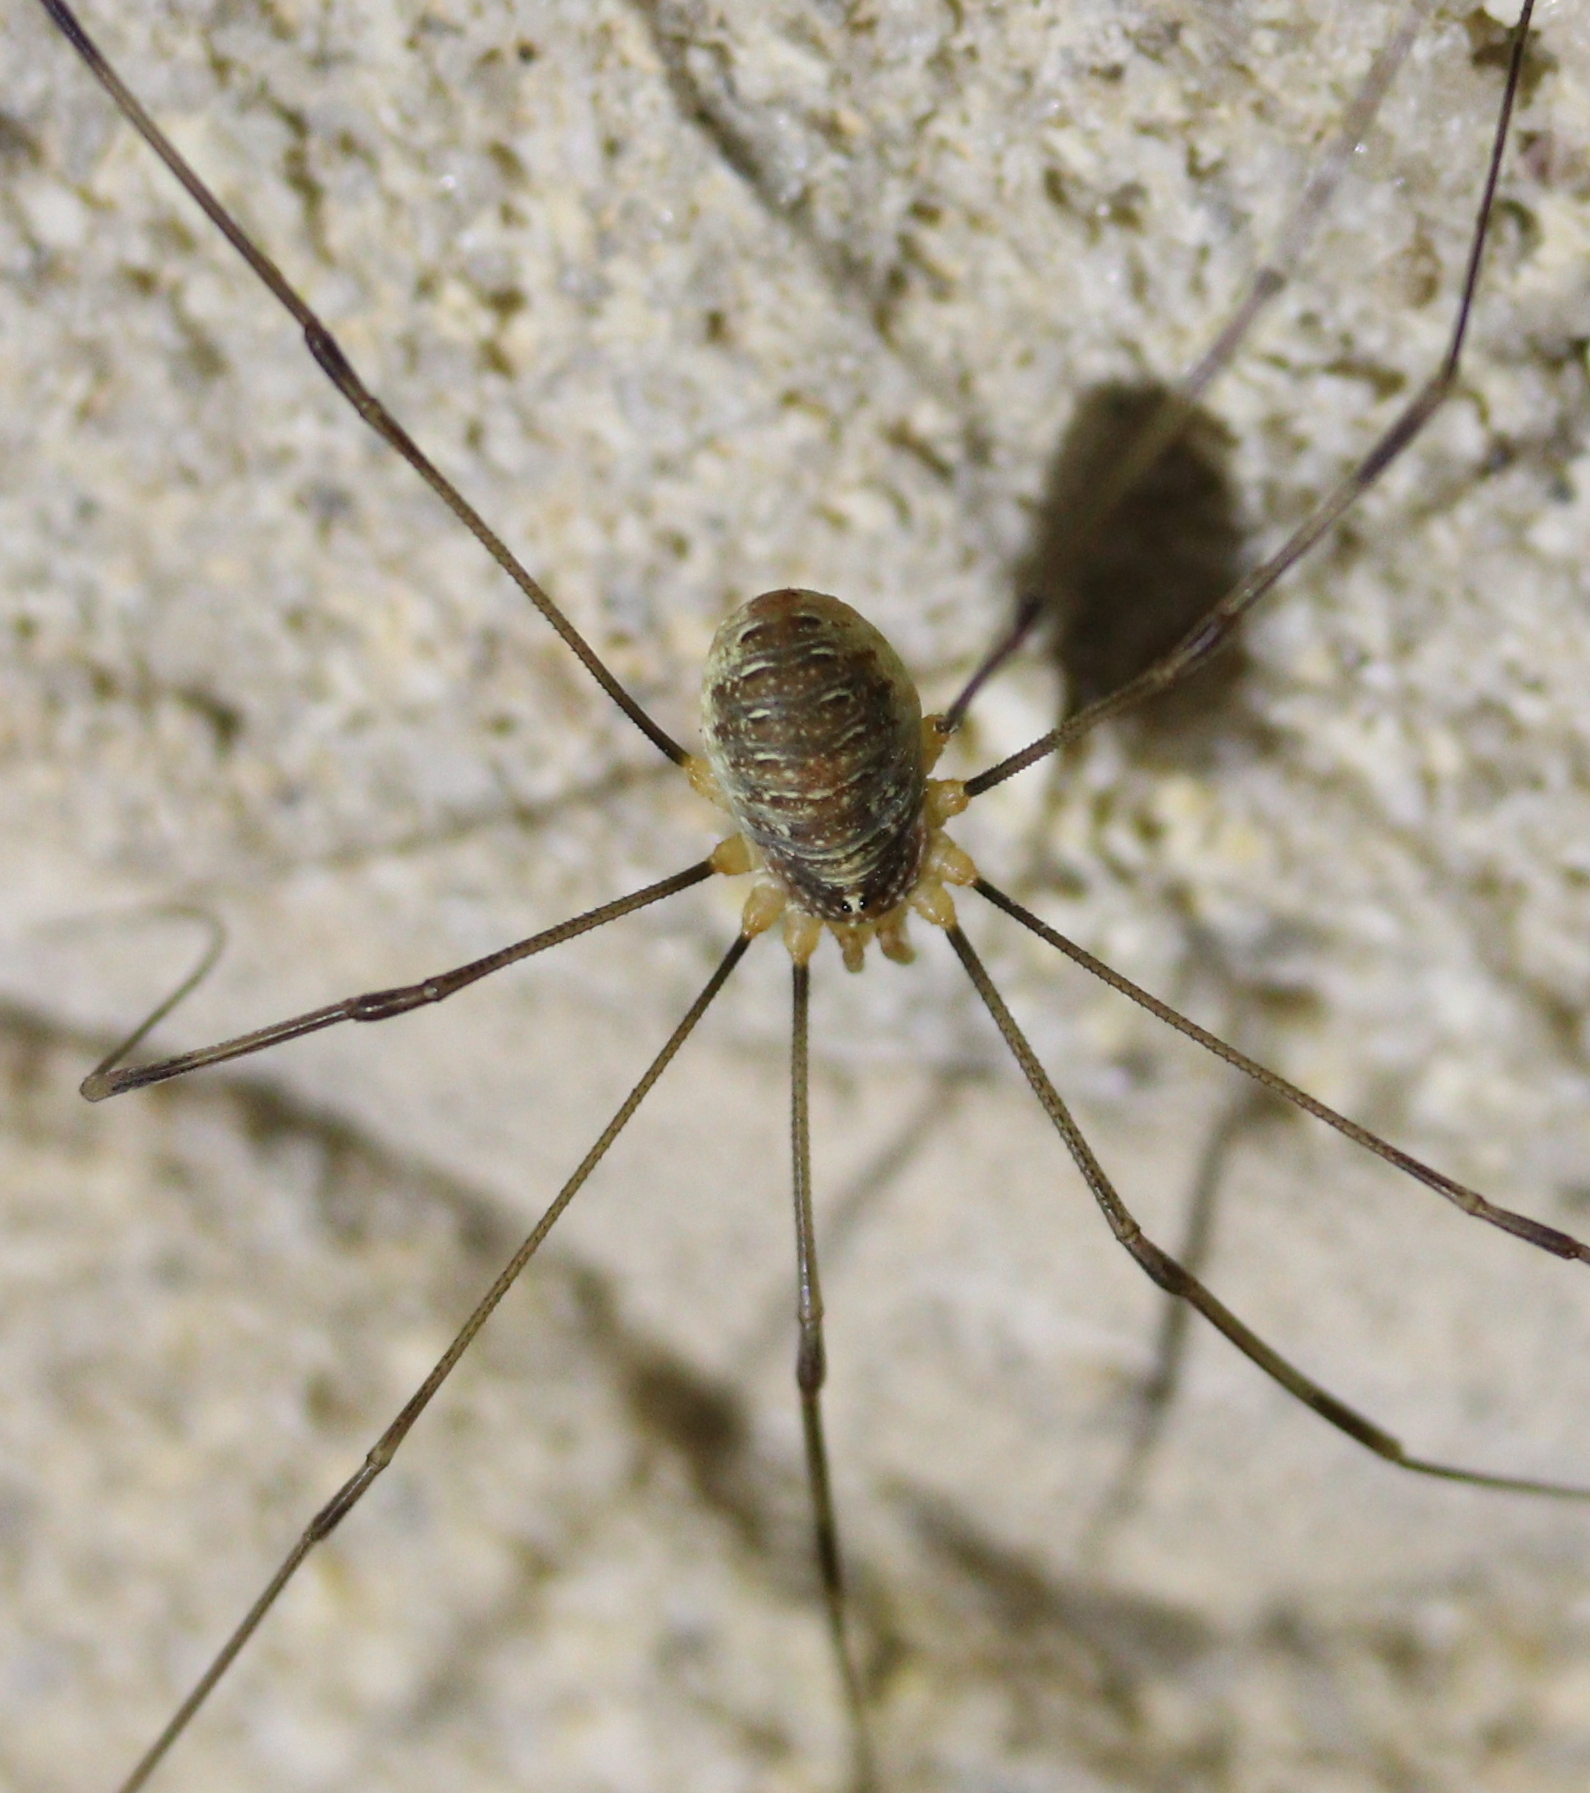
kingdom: Animalia
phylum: Arthropoda
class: Arachnida
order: Opiliones
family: Phalangiidae
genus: Opilio
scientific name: Opilio canestrinii
